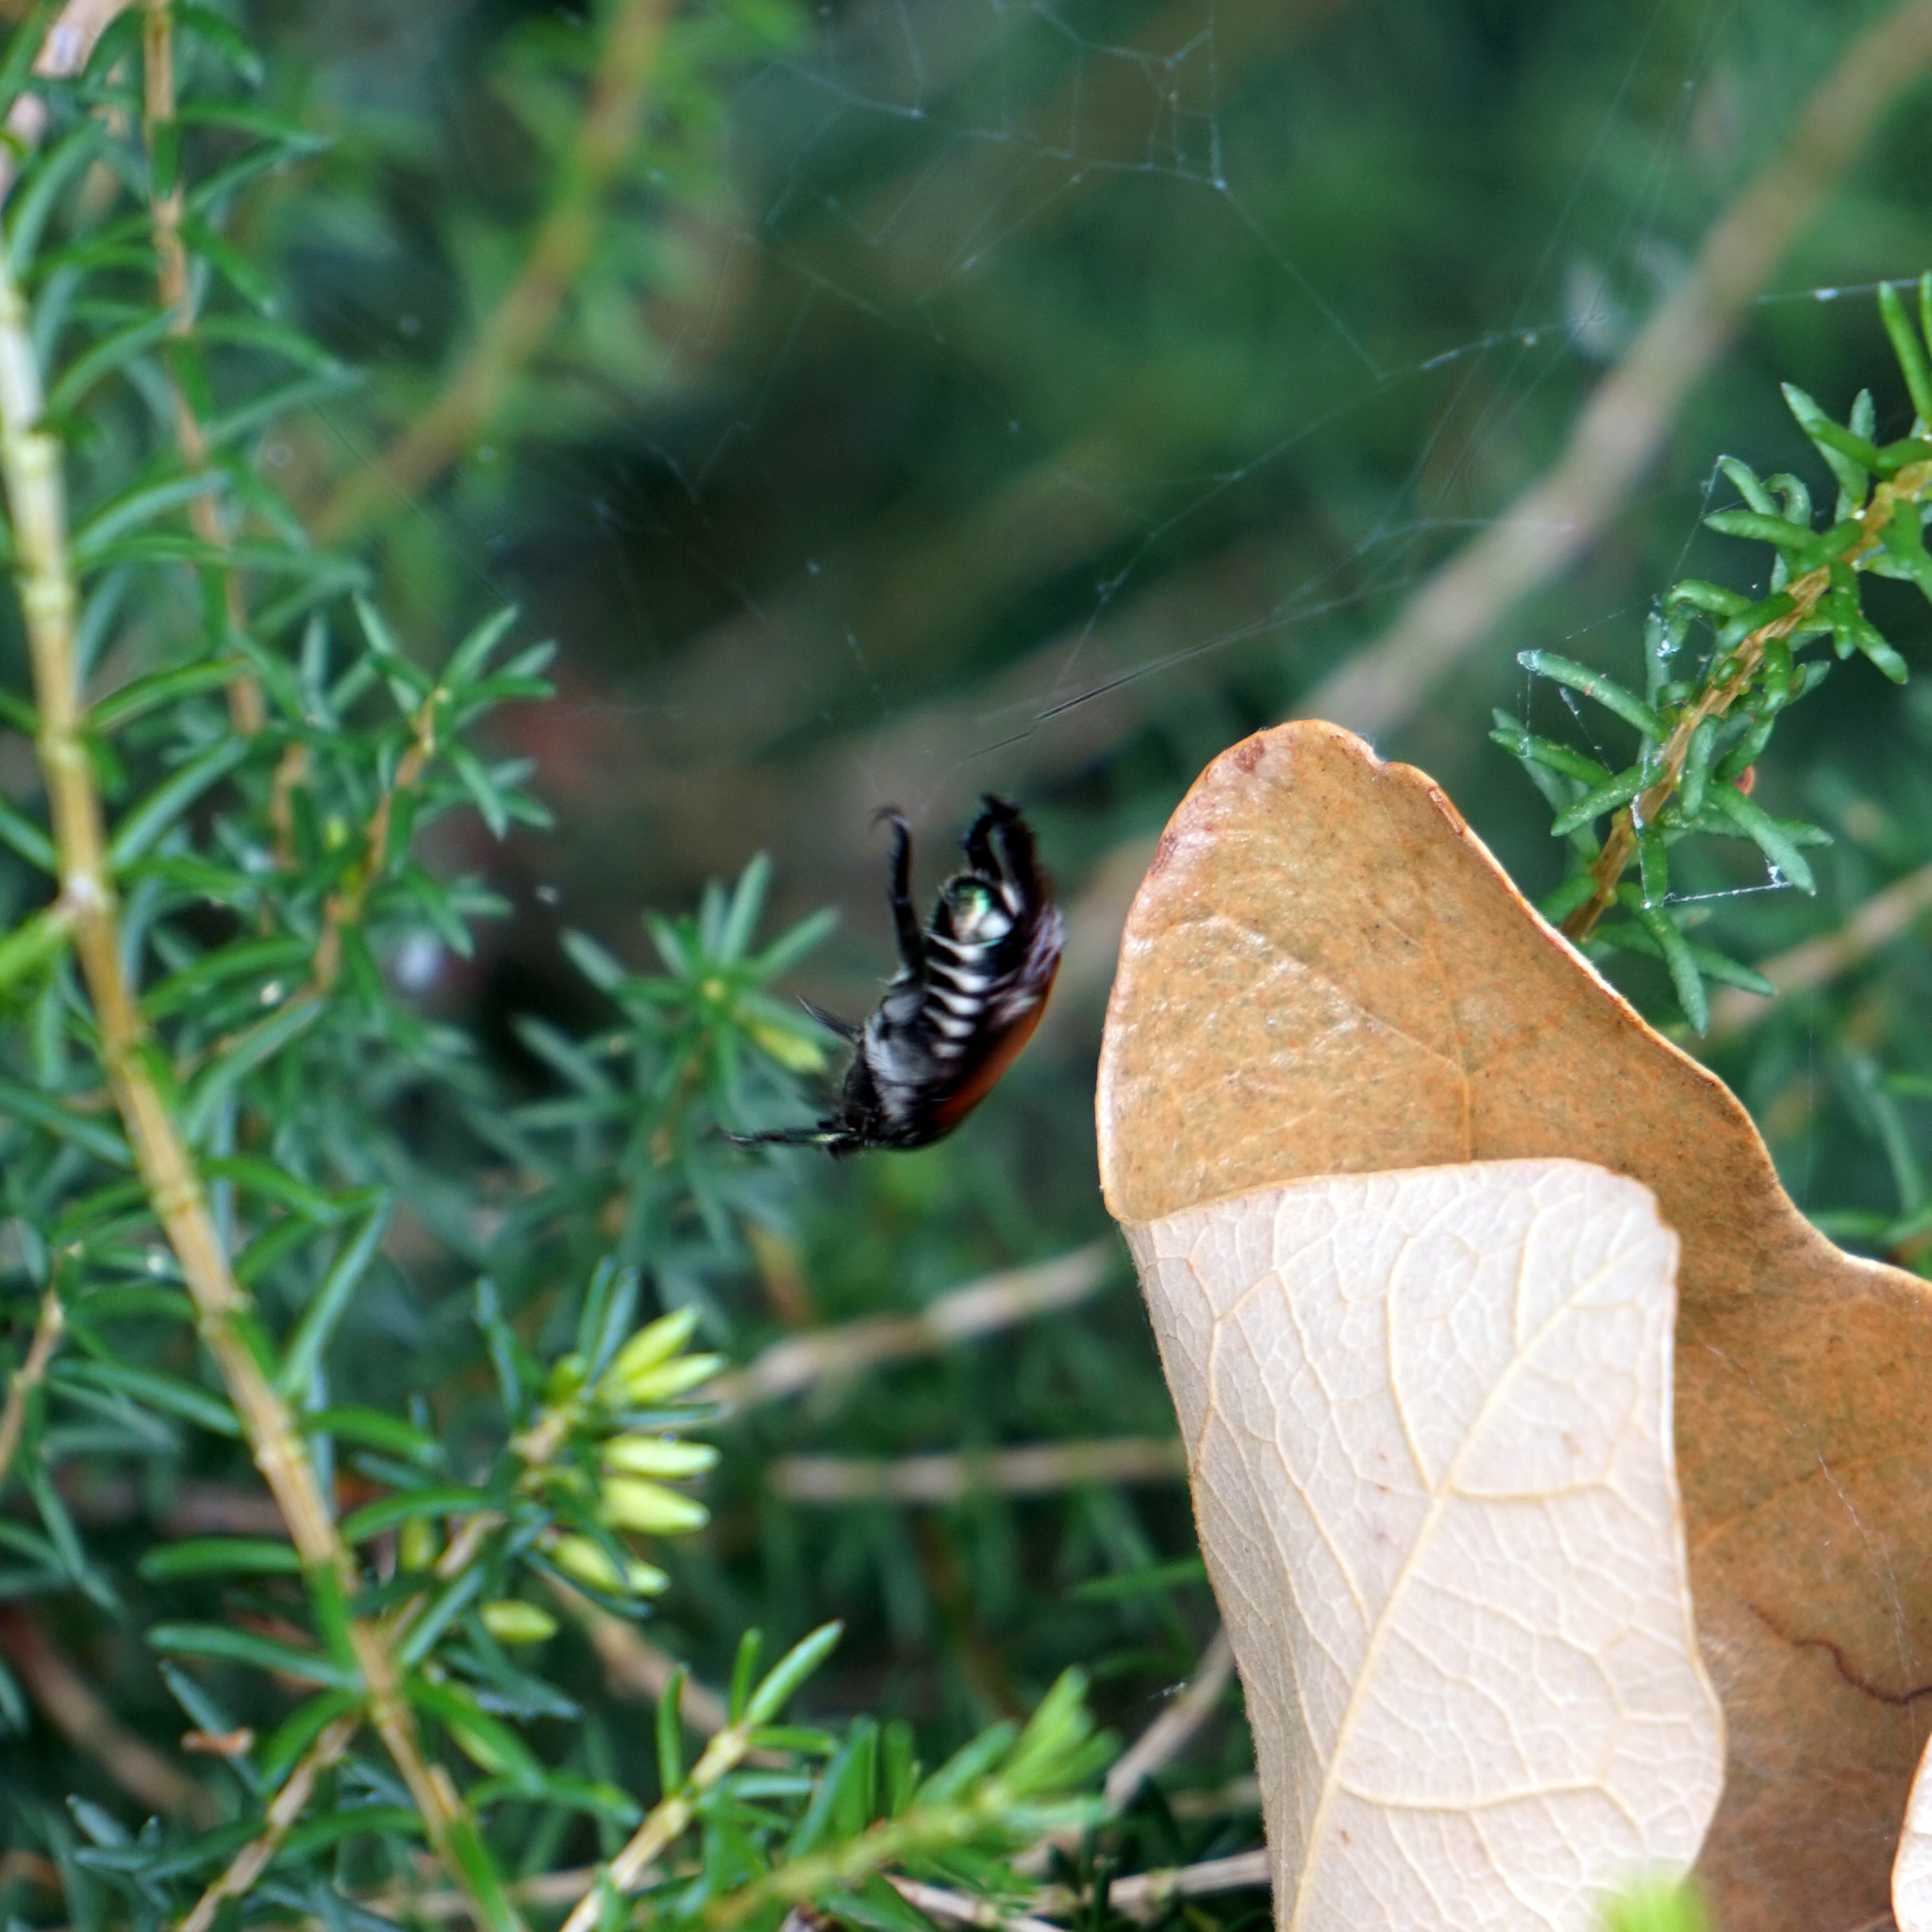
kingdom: Animalia
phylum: Arthropoda
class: Insecta
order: Coleoptera
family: Scarabaeidae
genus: Popillia
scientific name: Popillia japonica
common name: Japanese beetle
